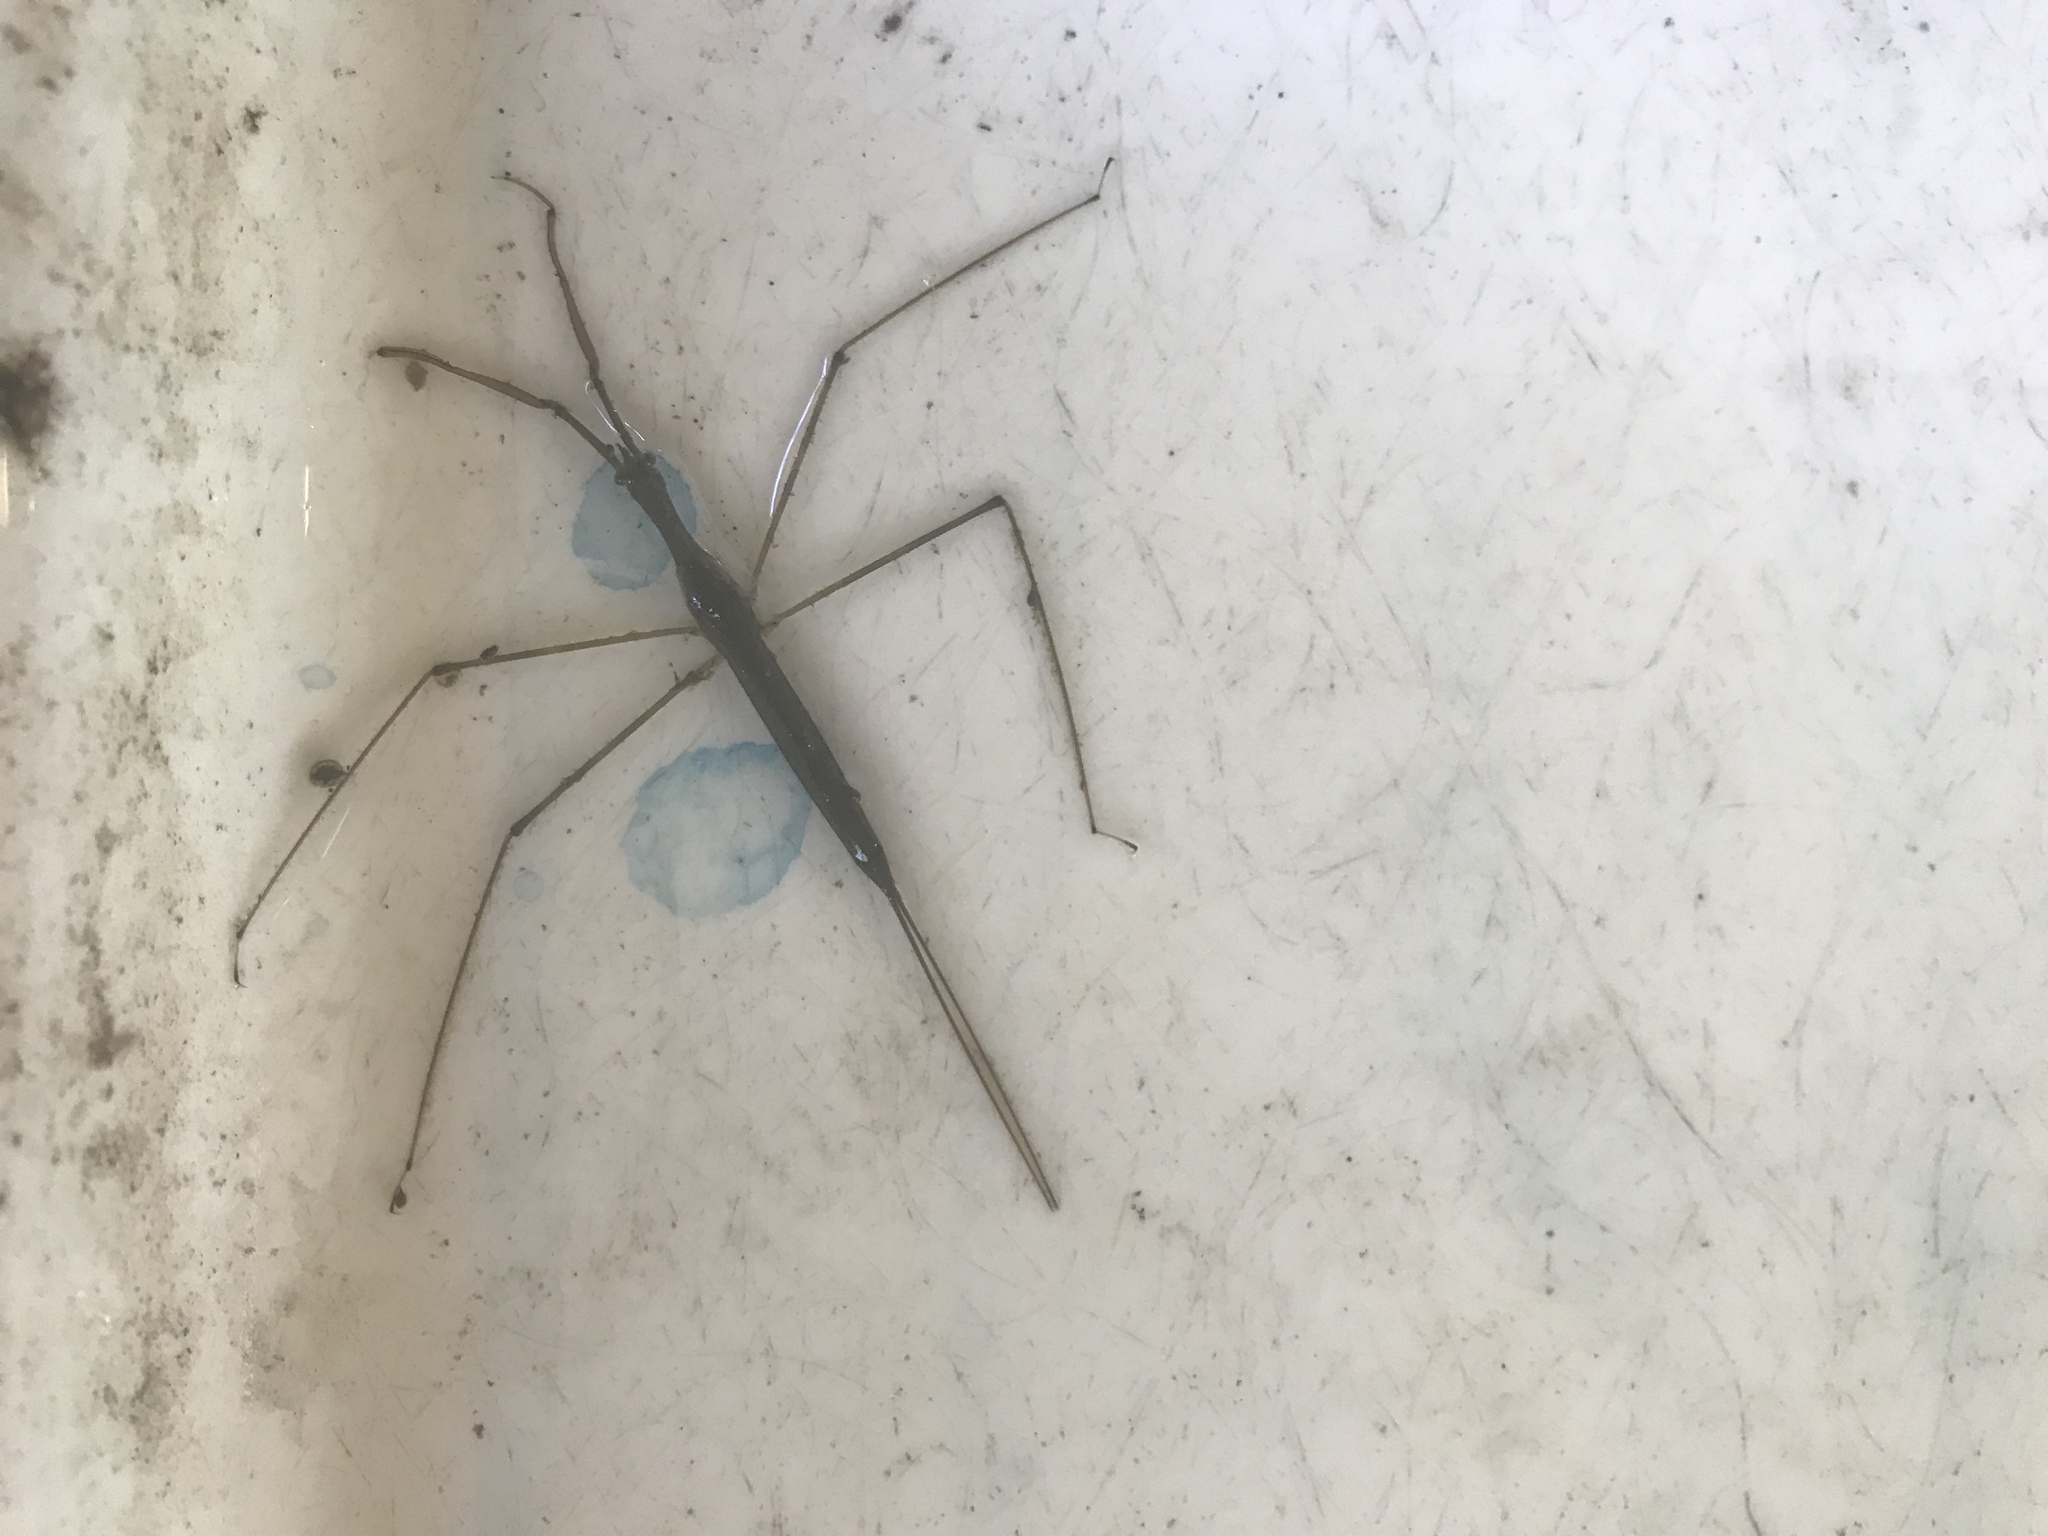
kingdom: Animalia
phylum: Arthropoda
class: Insecta
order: Hemiptera
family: Nepidae
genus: Ranatra
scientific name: Ranatra
